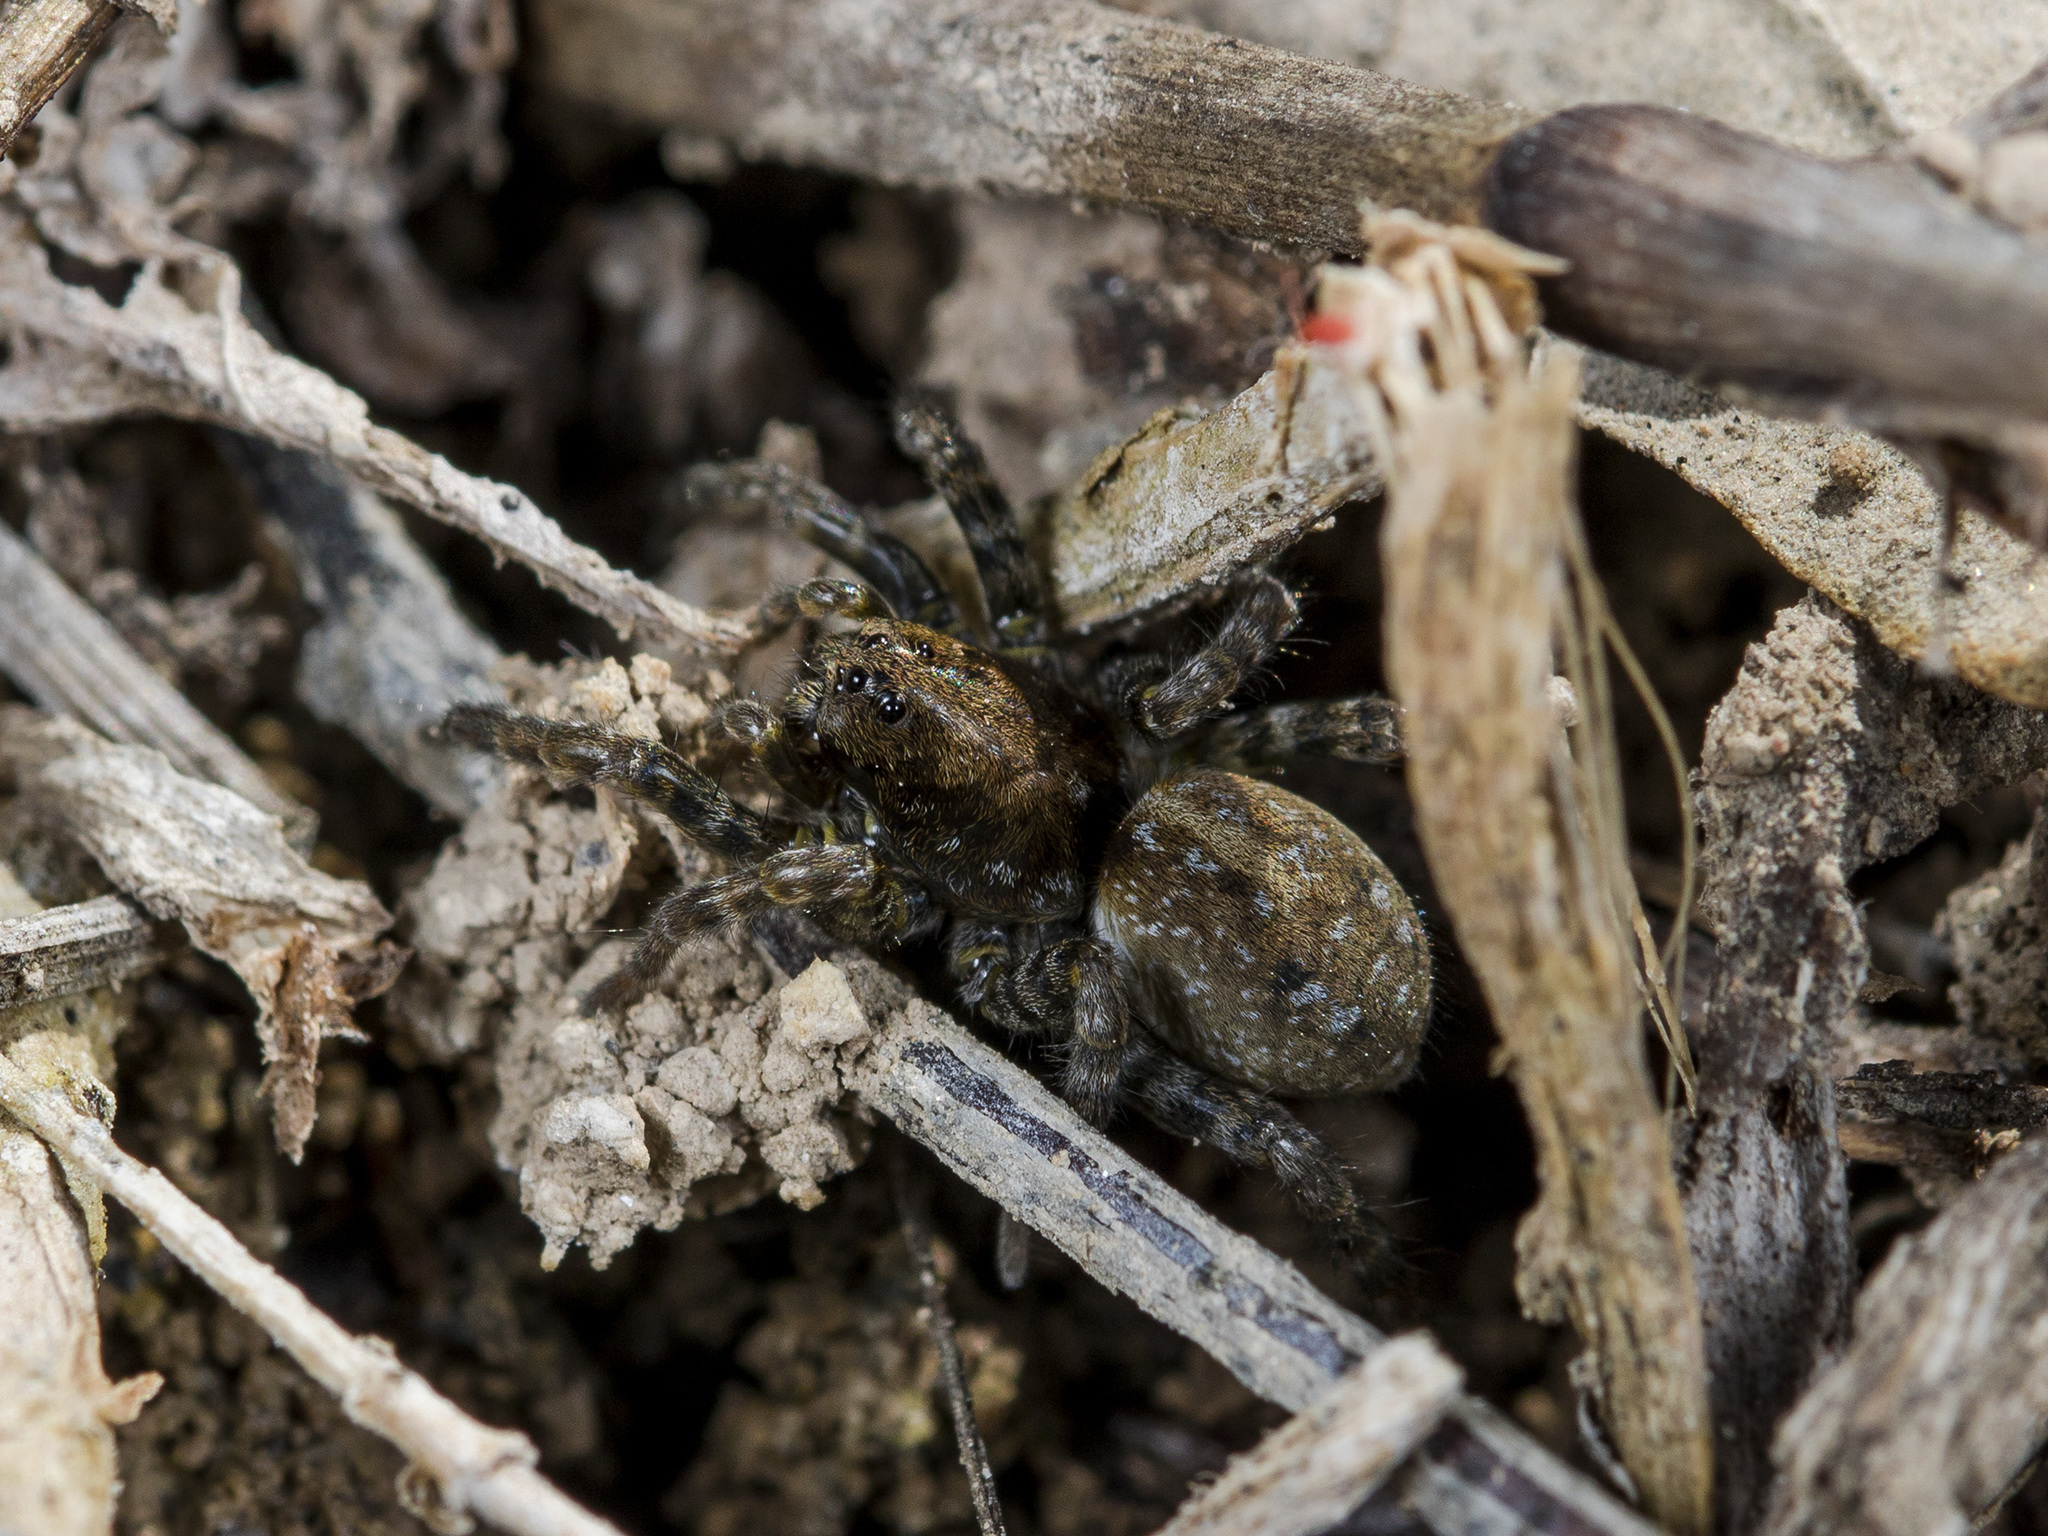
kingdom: Animalia
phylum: Arthropoda
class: Arachnida
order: Araneae
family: Lycosidae
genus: Arctosa
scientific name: Arctosa leopardus
